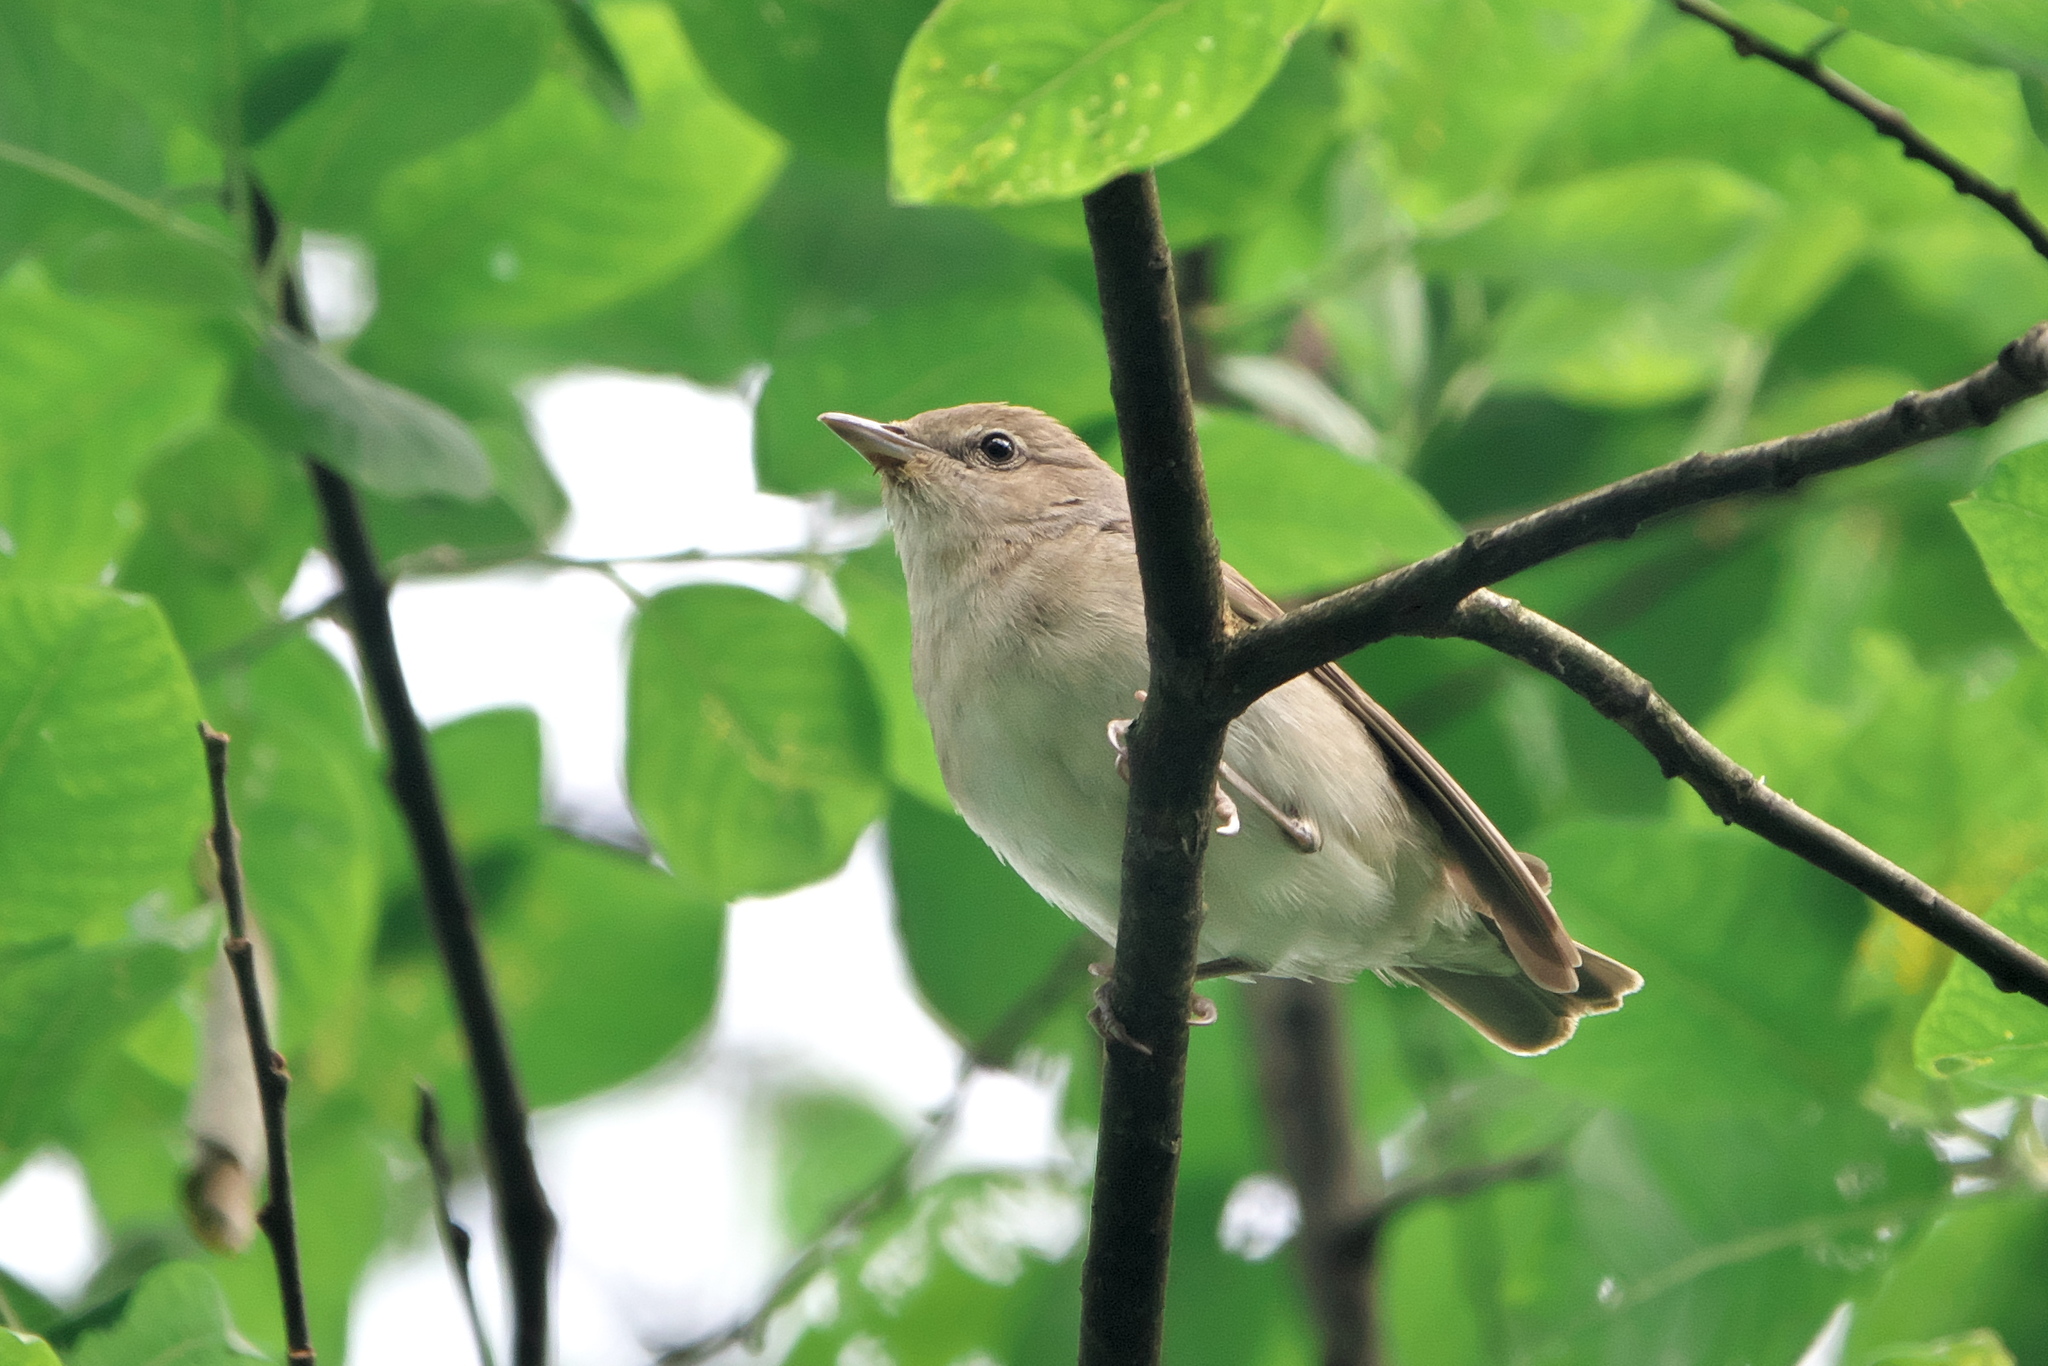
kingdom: Animalia
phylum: Chordata
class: Aves
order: Passeriformes
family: Sylviidae
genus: Sylvia
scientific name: Sylvia borin
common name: Garden warbler
